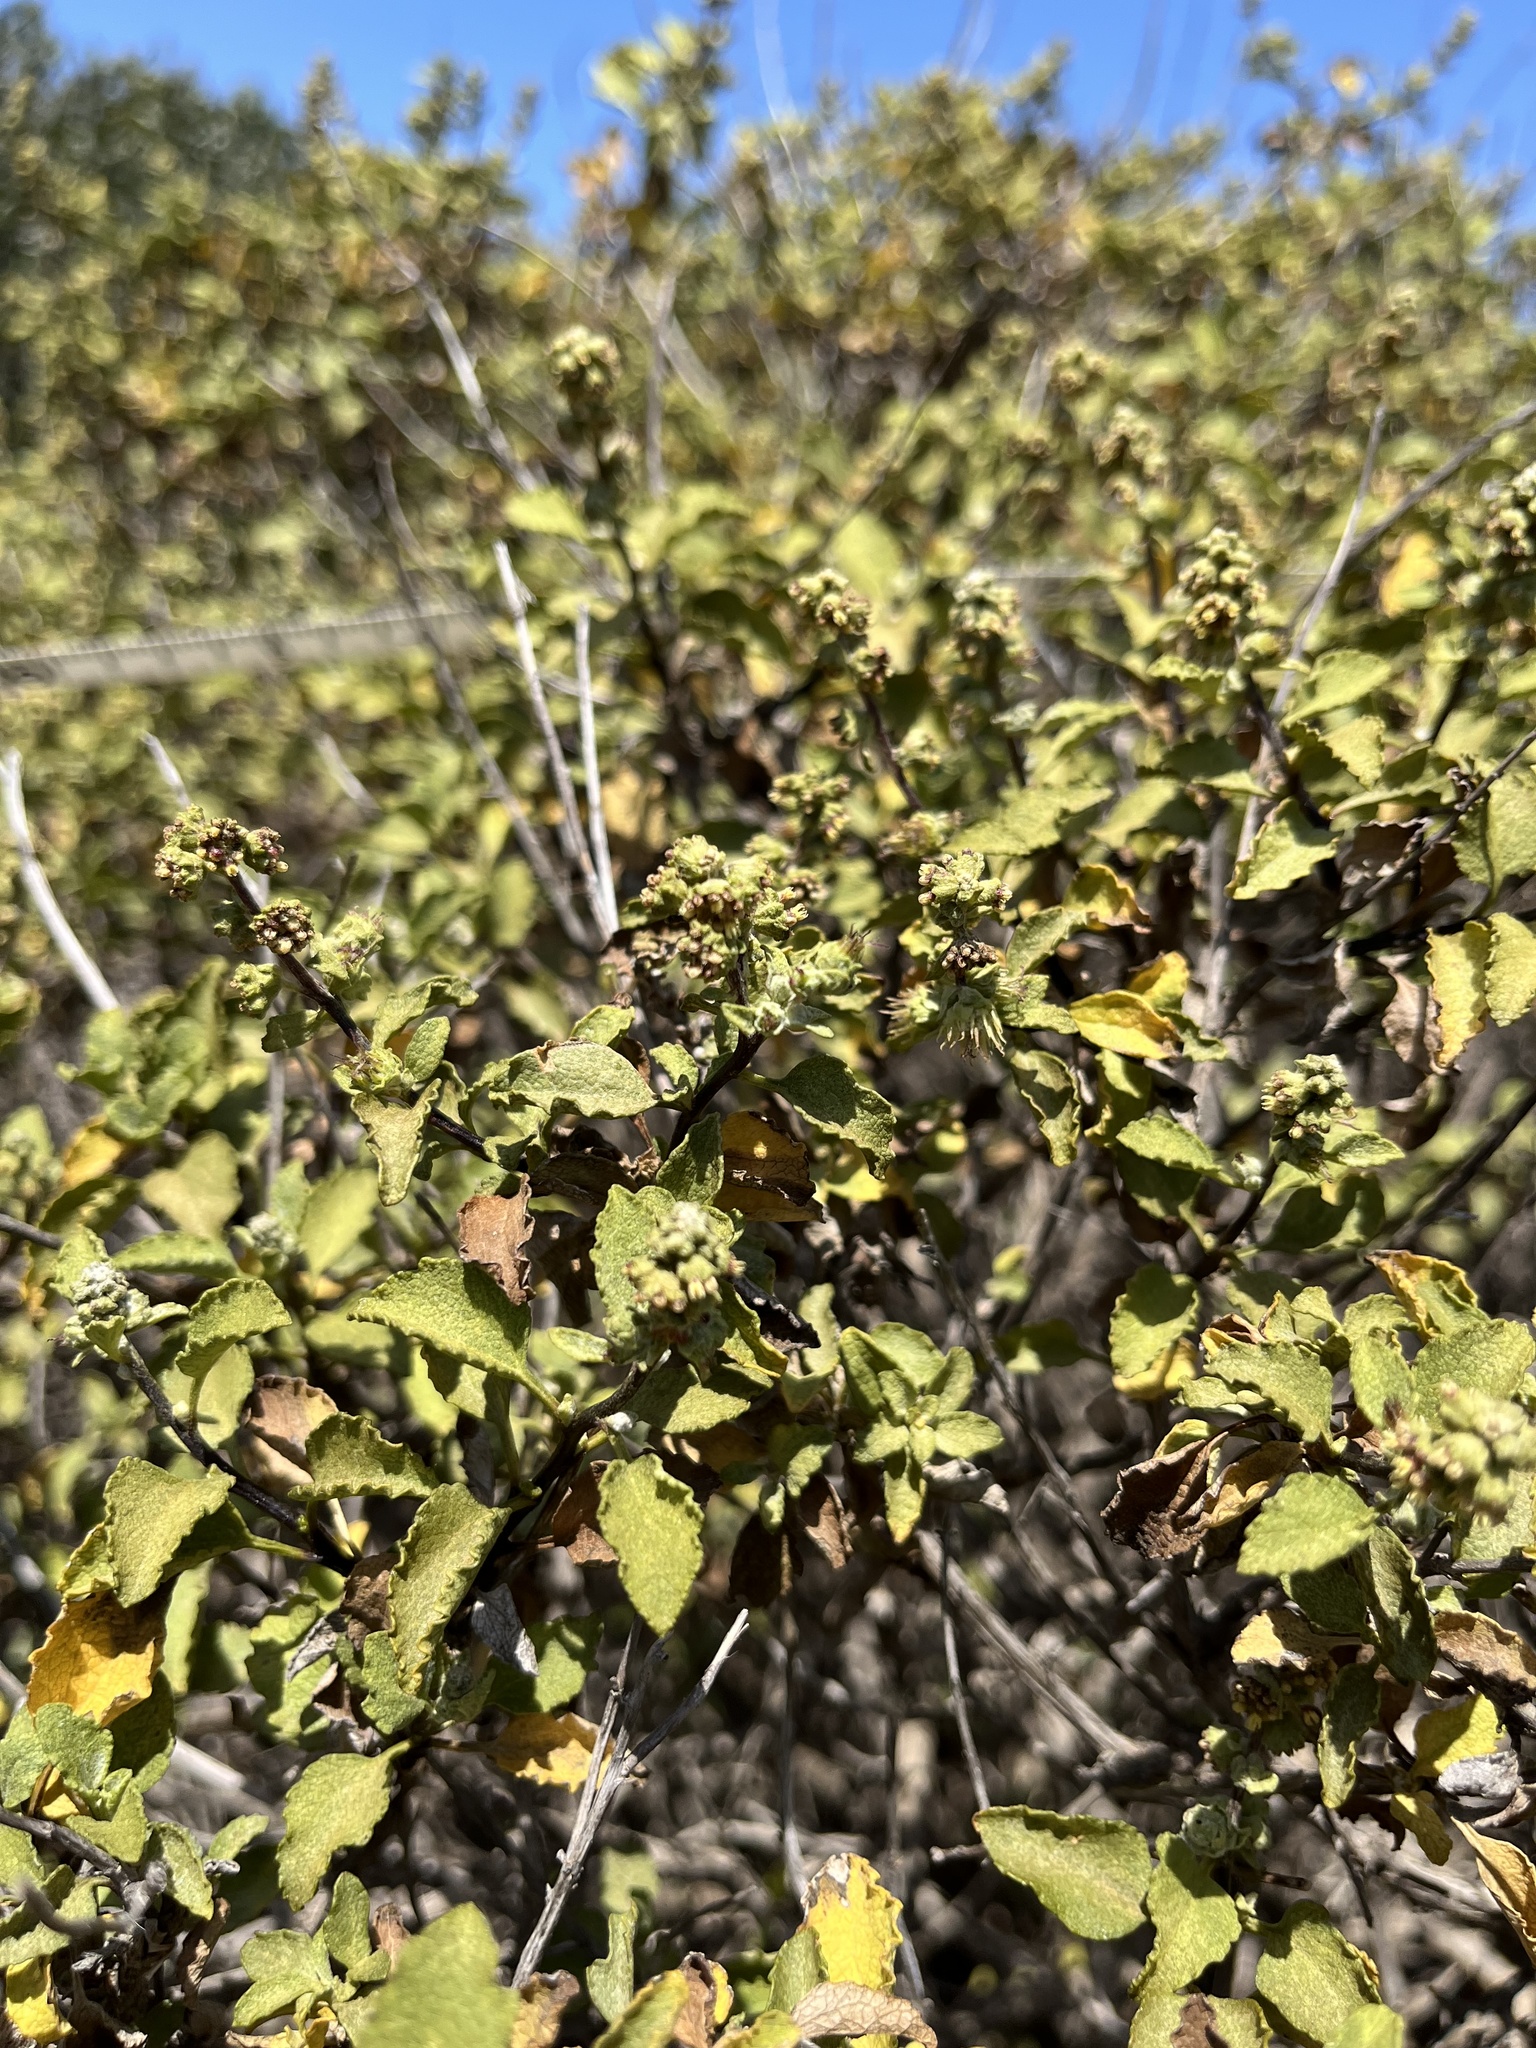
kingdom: Plantae
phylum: Tracheophyta
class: Magnoliopsida
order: Asterales
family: Asteraceae
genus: Ambrosia
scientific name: Ambrosia chenopodiifolia
